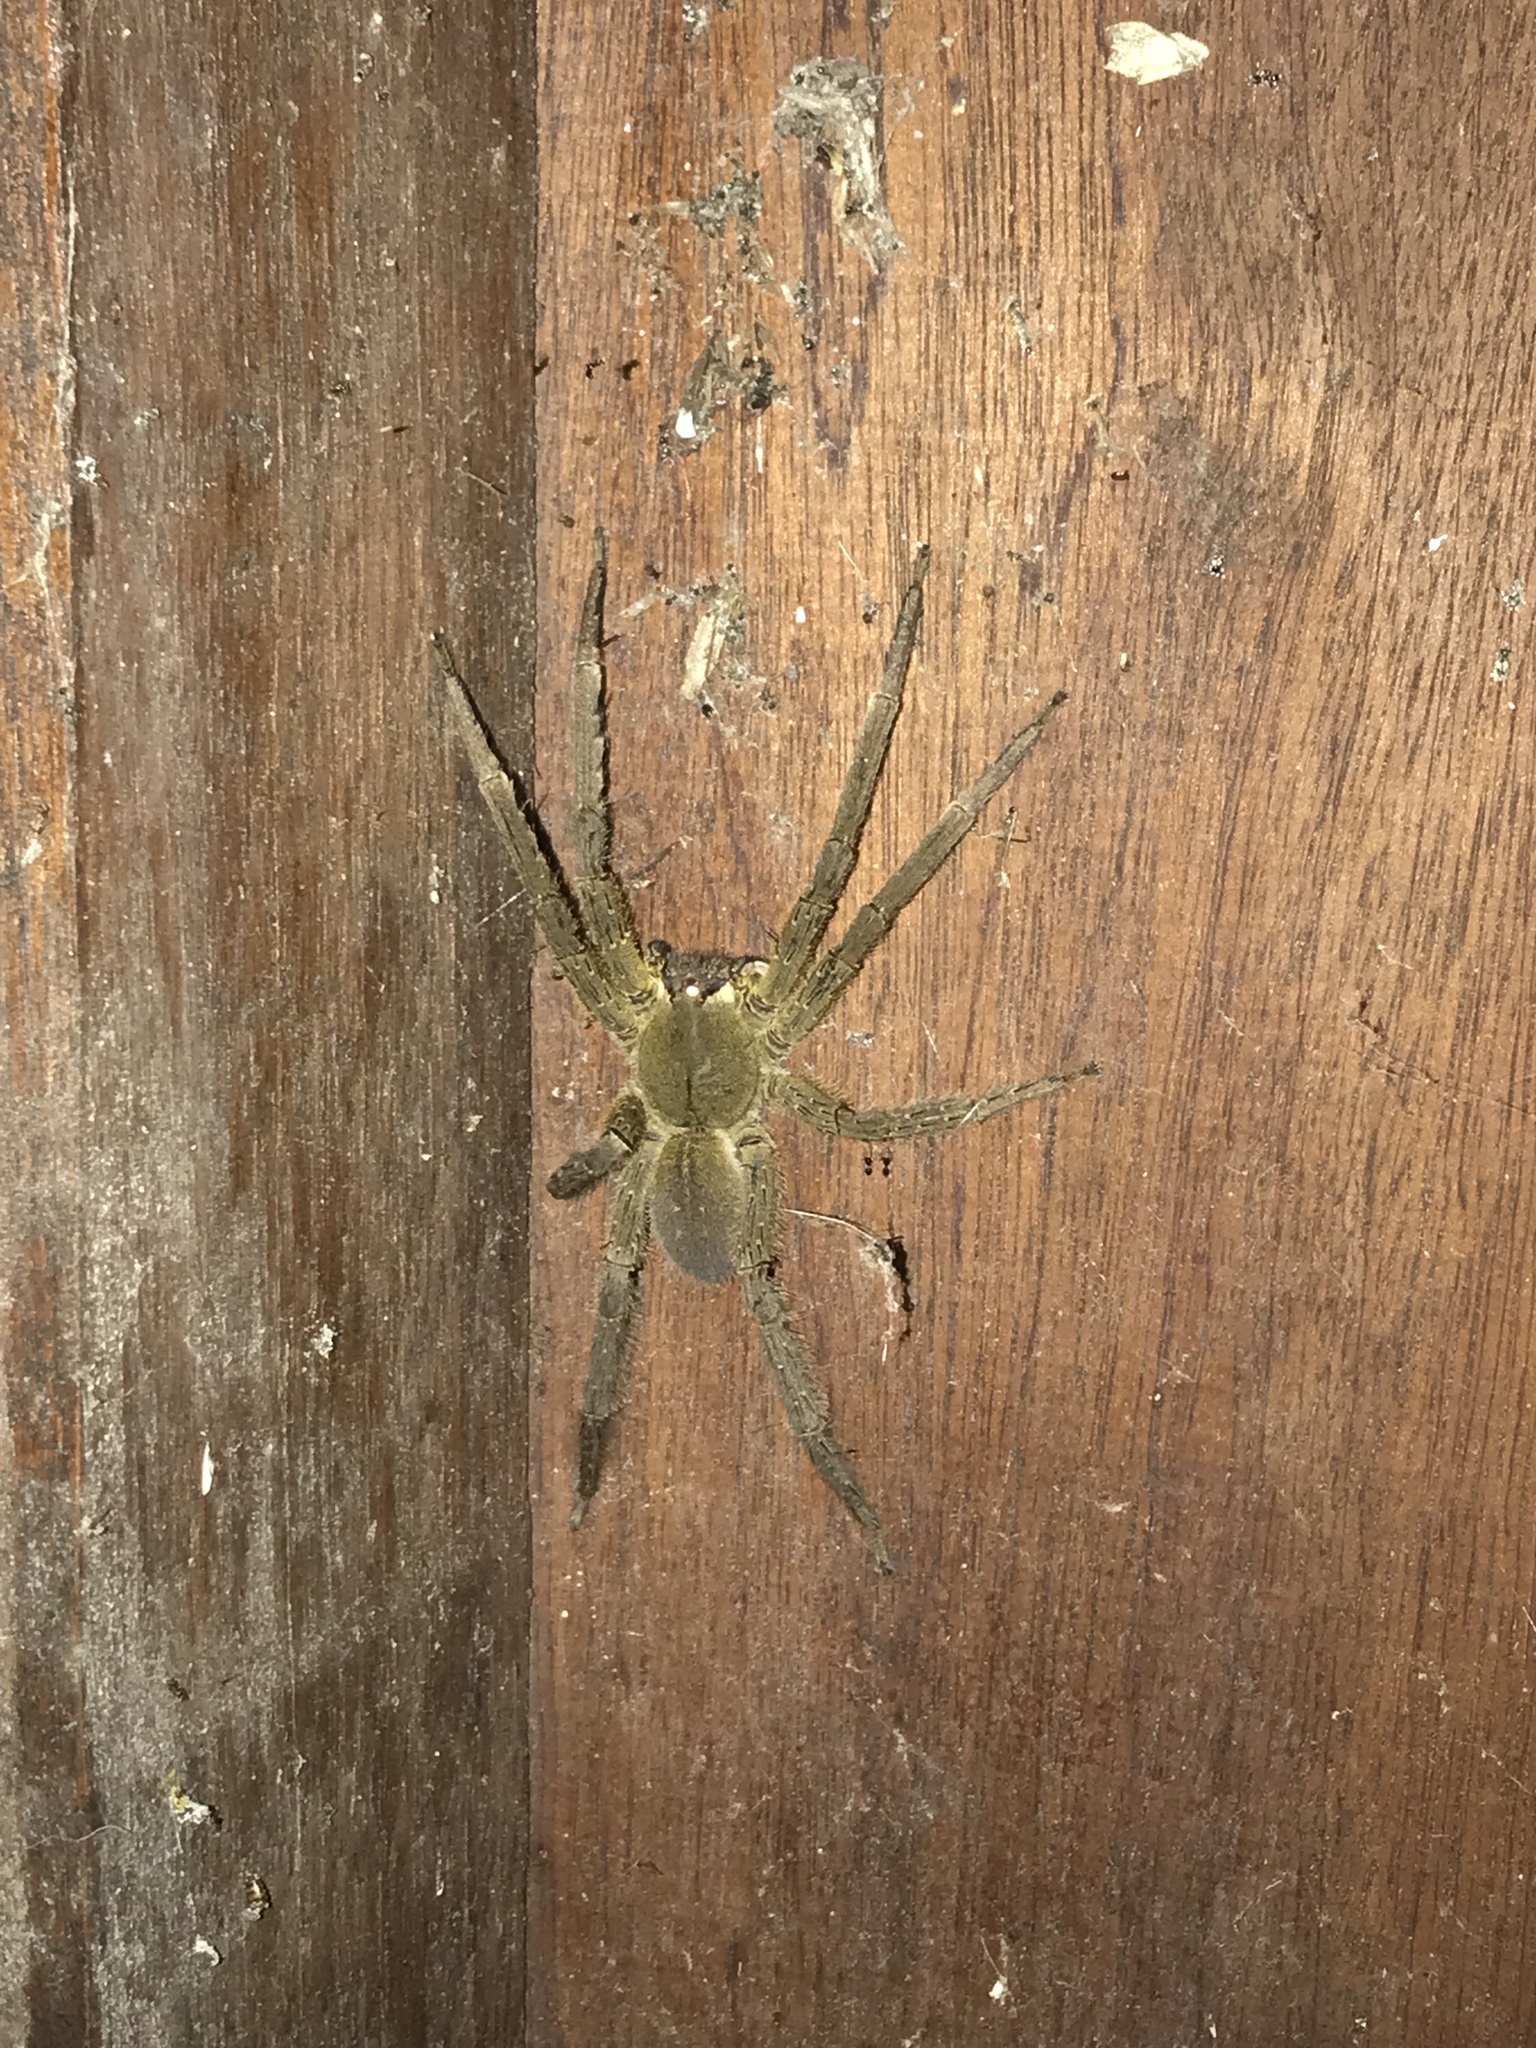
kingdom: Animalia
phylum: Arthropoda
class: Arachnida
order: Araneae
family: Ctenidae
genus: Phoneutria
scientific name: Phoneutria boliviensis
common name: Wandering spiders
